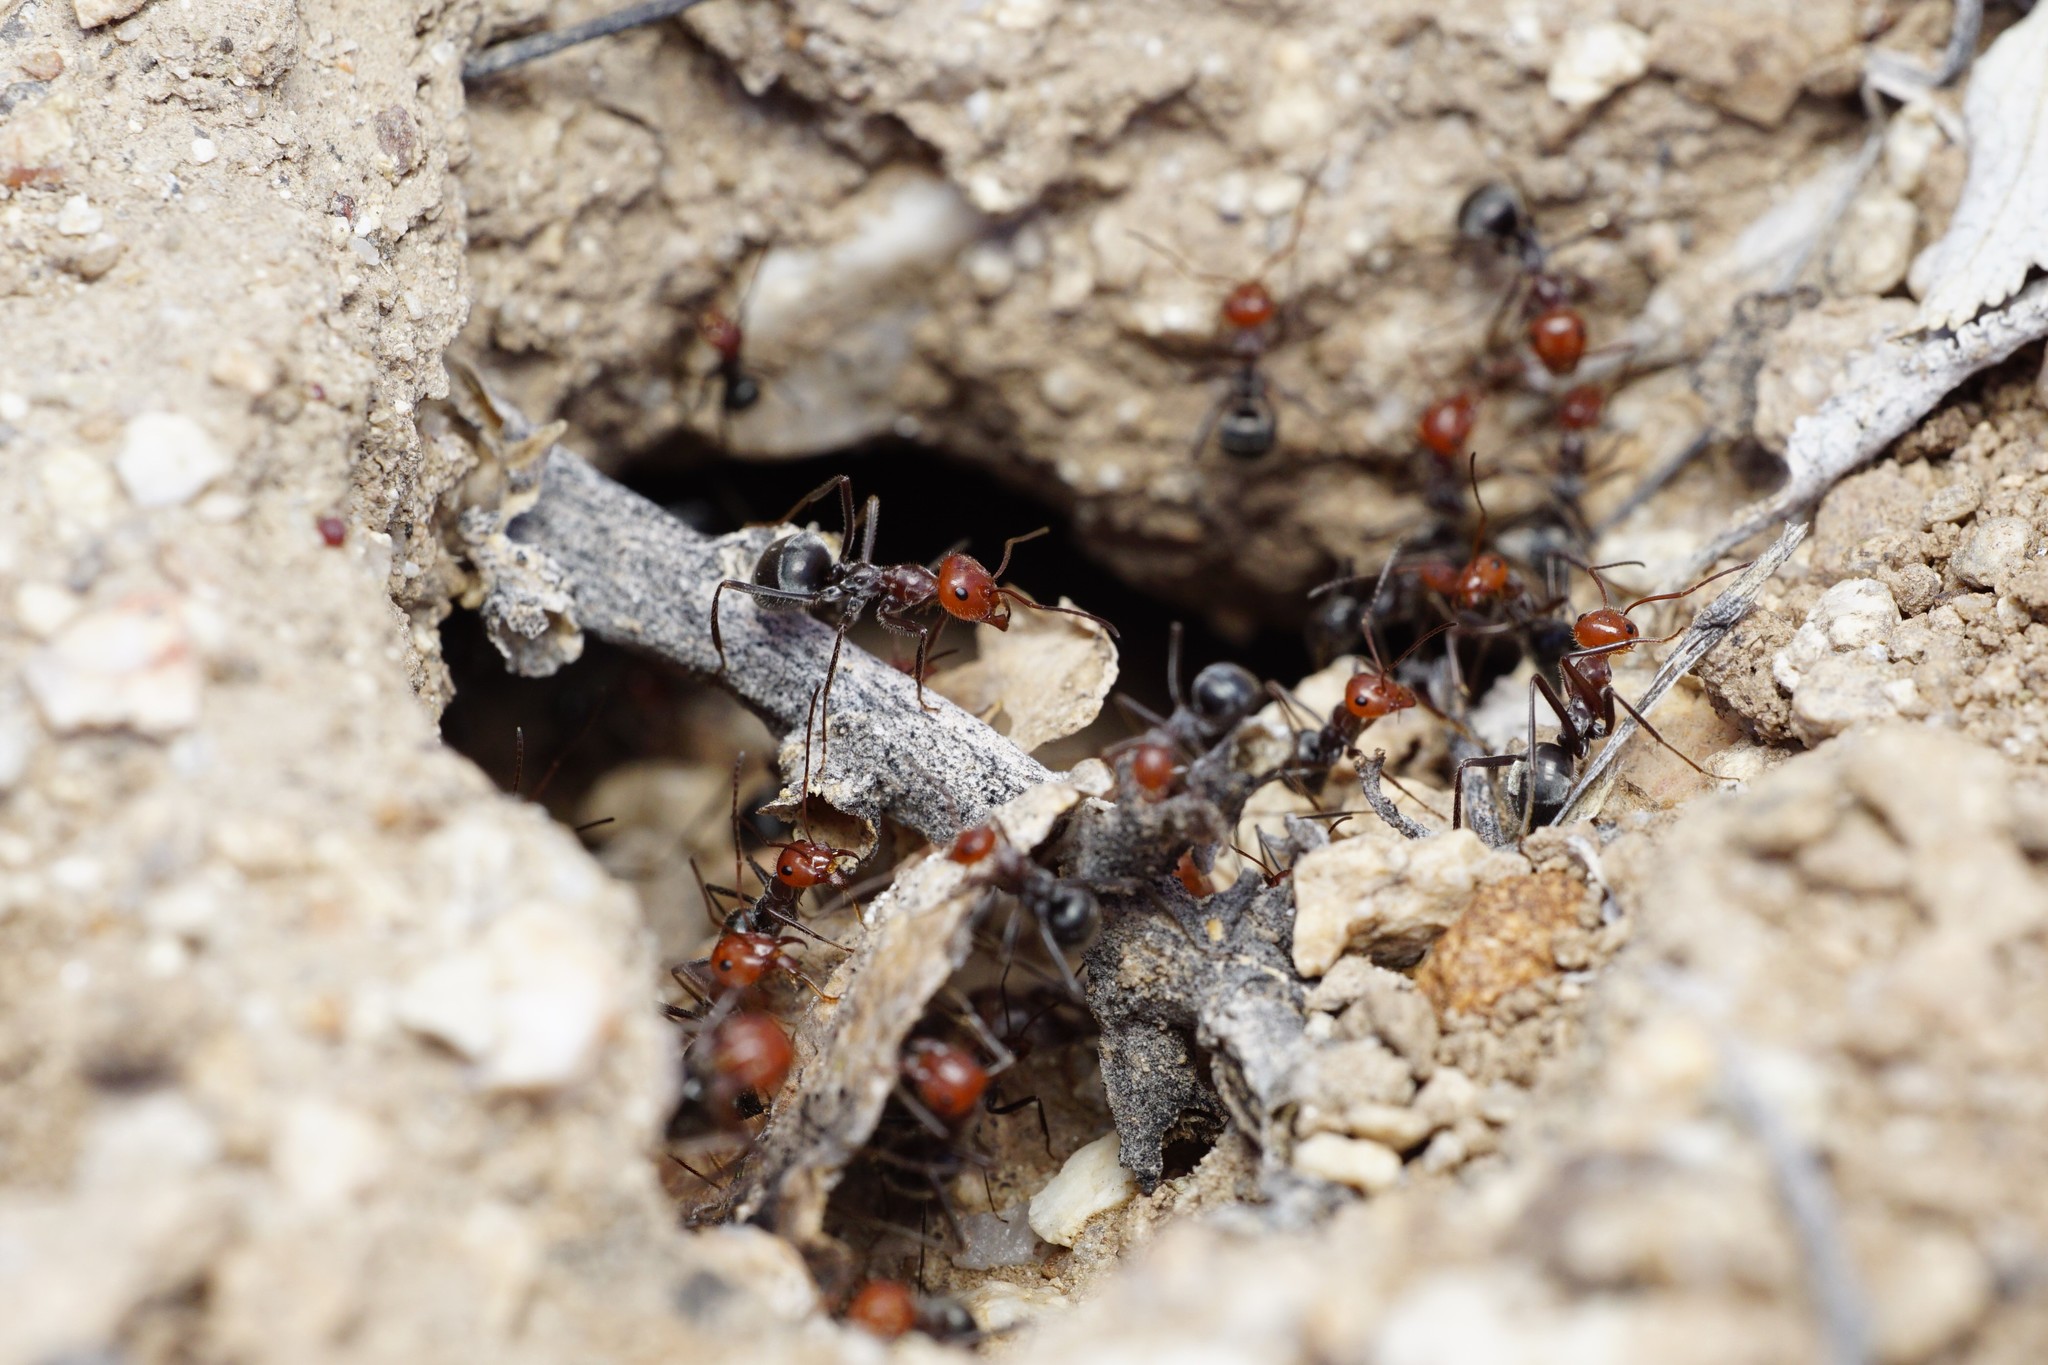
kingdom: Animalia
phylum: Arthropoda
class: Insecta
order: Hymenoptera
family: Formicidae
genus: Myrmecocystus
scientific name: Myrmecocystus placodops
